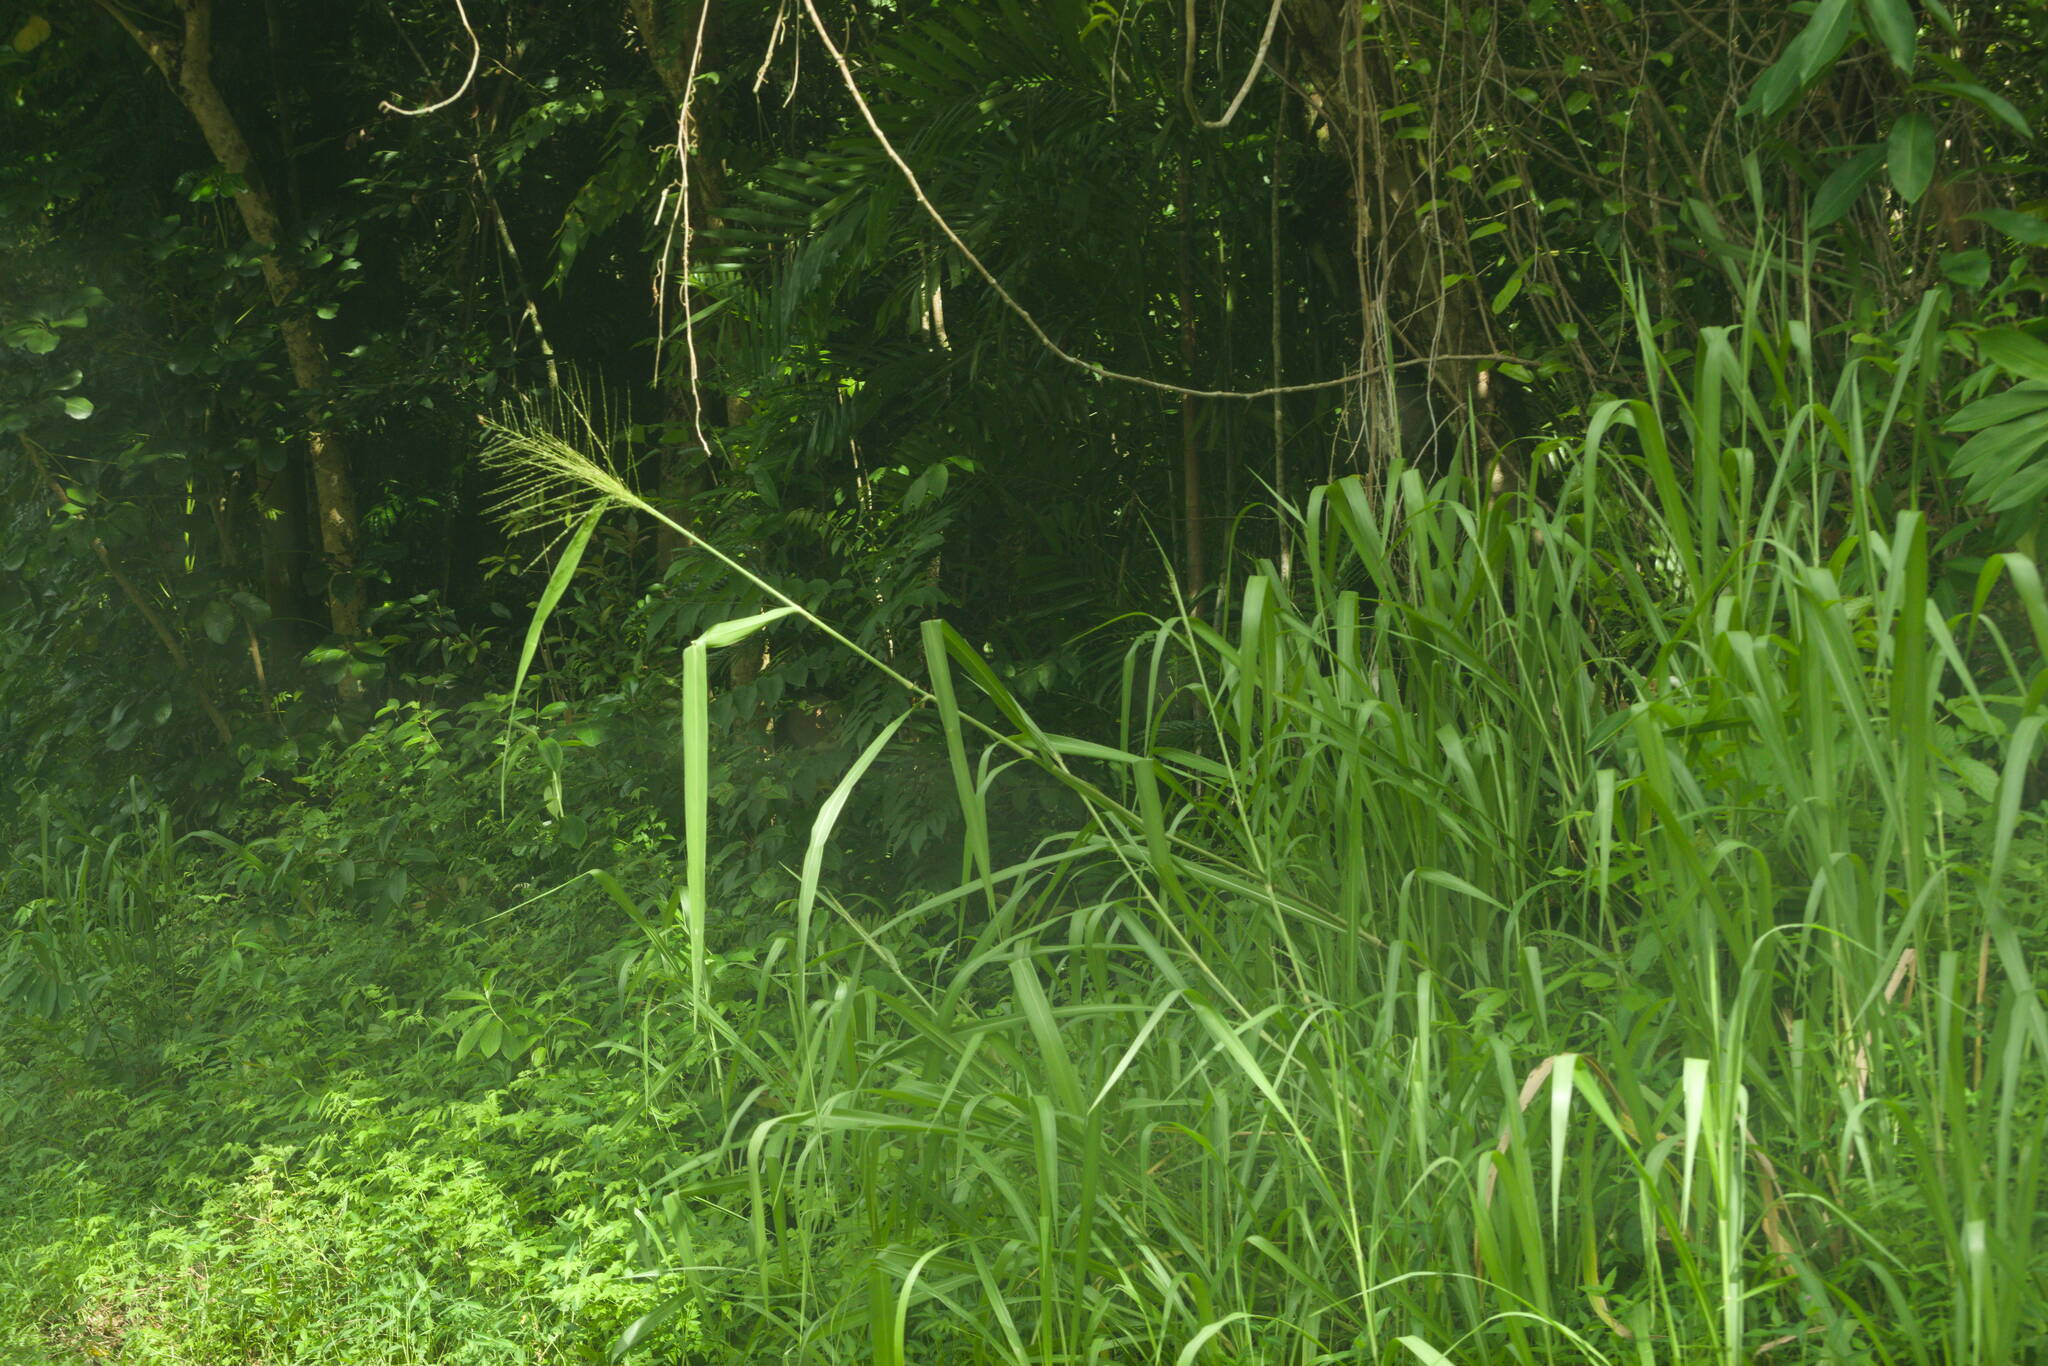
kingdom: Plantae
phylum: Tracheophyta
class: Liliopsida
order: Poales
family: Poaceae
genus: Megathyrsus
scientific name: Megathyrsus maximus
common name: Guineagrass
